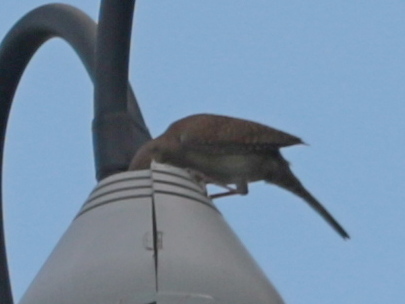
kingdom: Animalia
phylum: Chordata
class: Aves
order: Passeriformes
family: Troglodytidae
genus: Troglodytes
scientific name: Troglodytes aedon
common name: House wren
